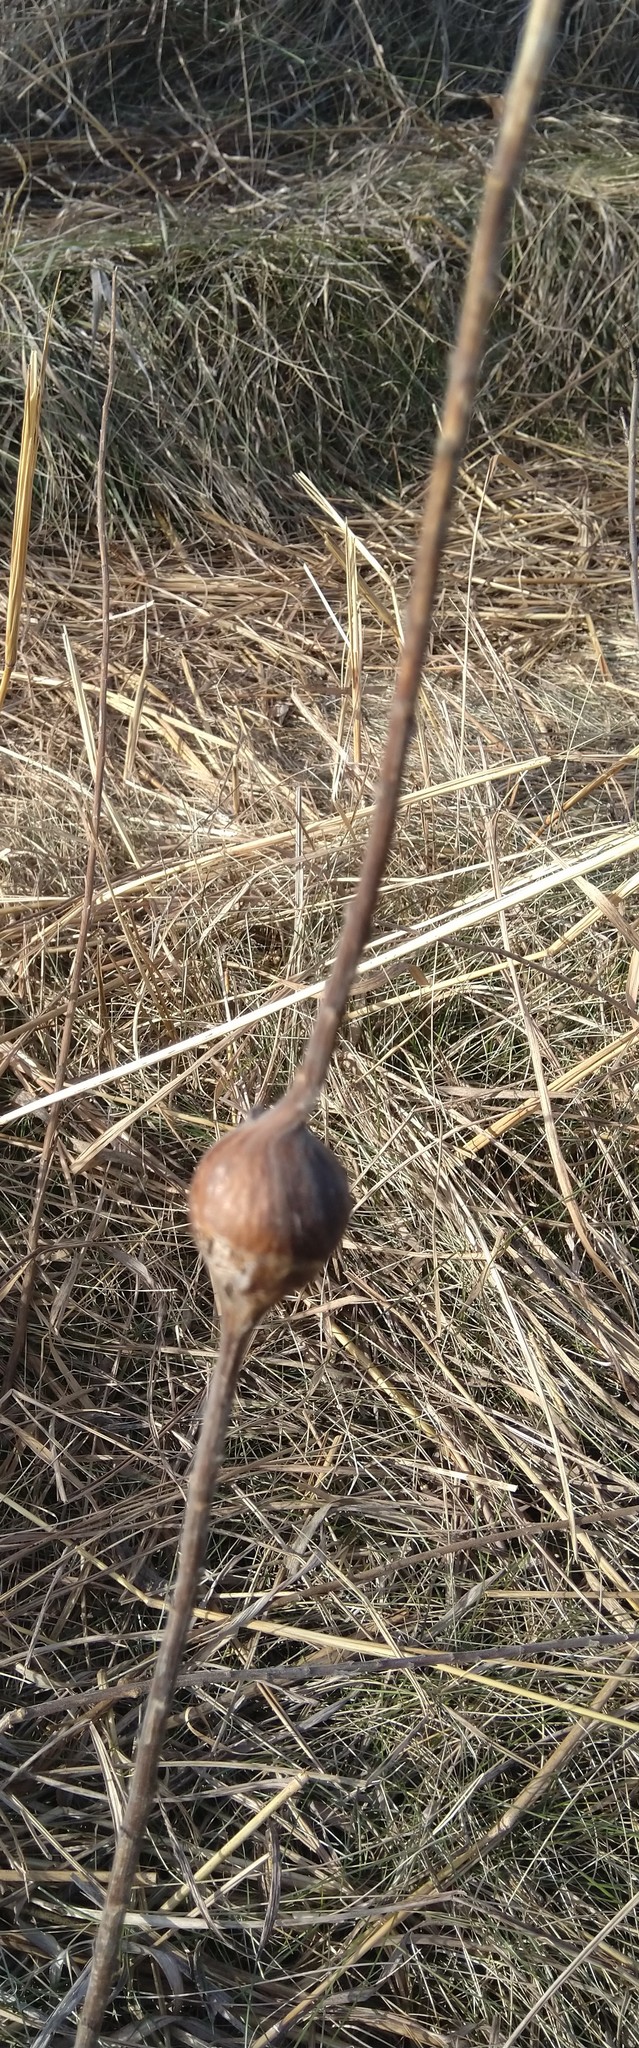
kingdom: Animalia
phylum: Arthropoda
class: Insecta
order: Diptera
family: Tephritidae
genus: Eurosta
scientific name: Eurosta solidaginis
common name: Goldenrod gall fly
